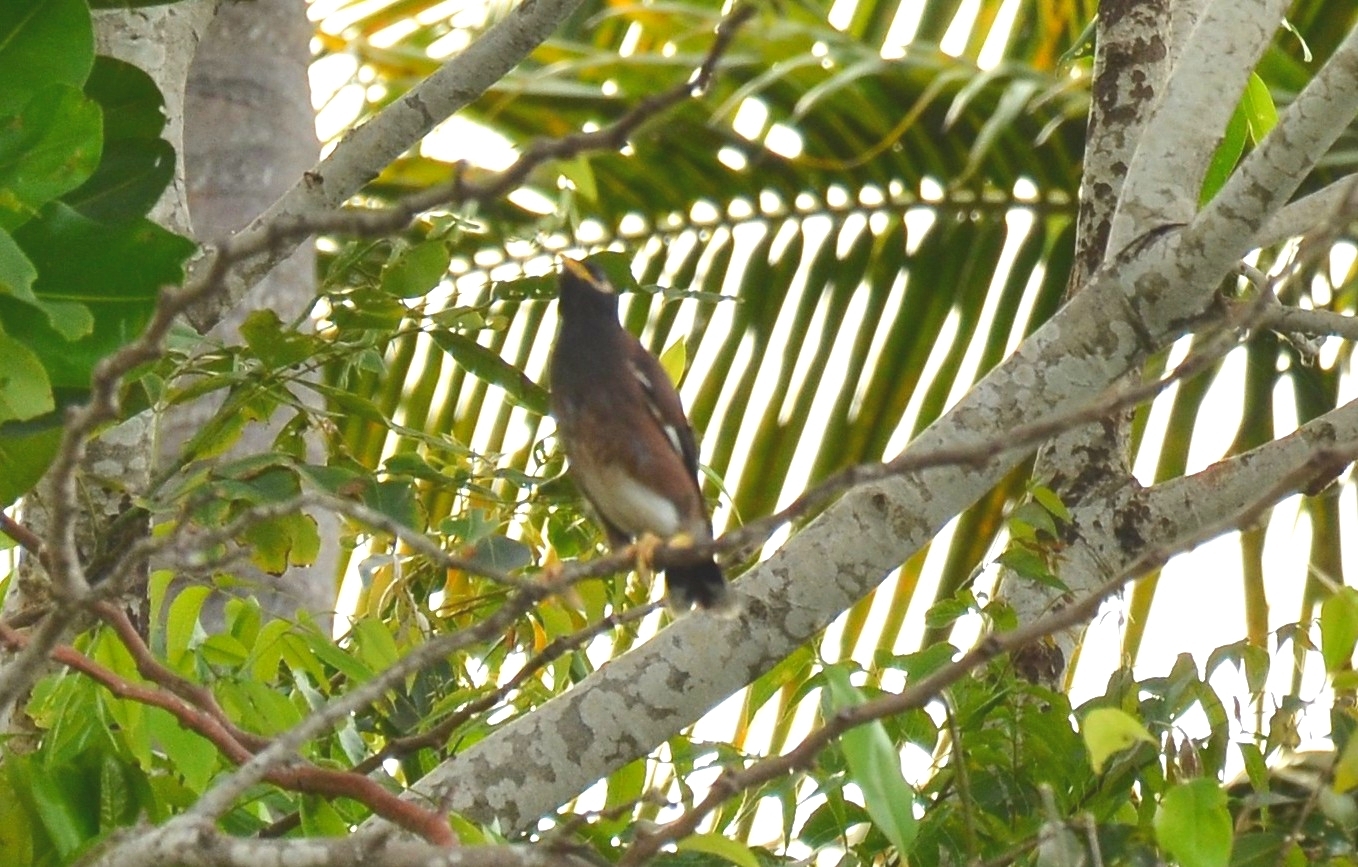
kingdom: Animalia
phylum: Chordata
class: Aves
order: Passeriformes
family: Sturnidae
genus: Acridotheres
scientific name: Acridotheres tristis
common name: Common myna
